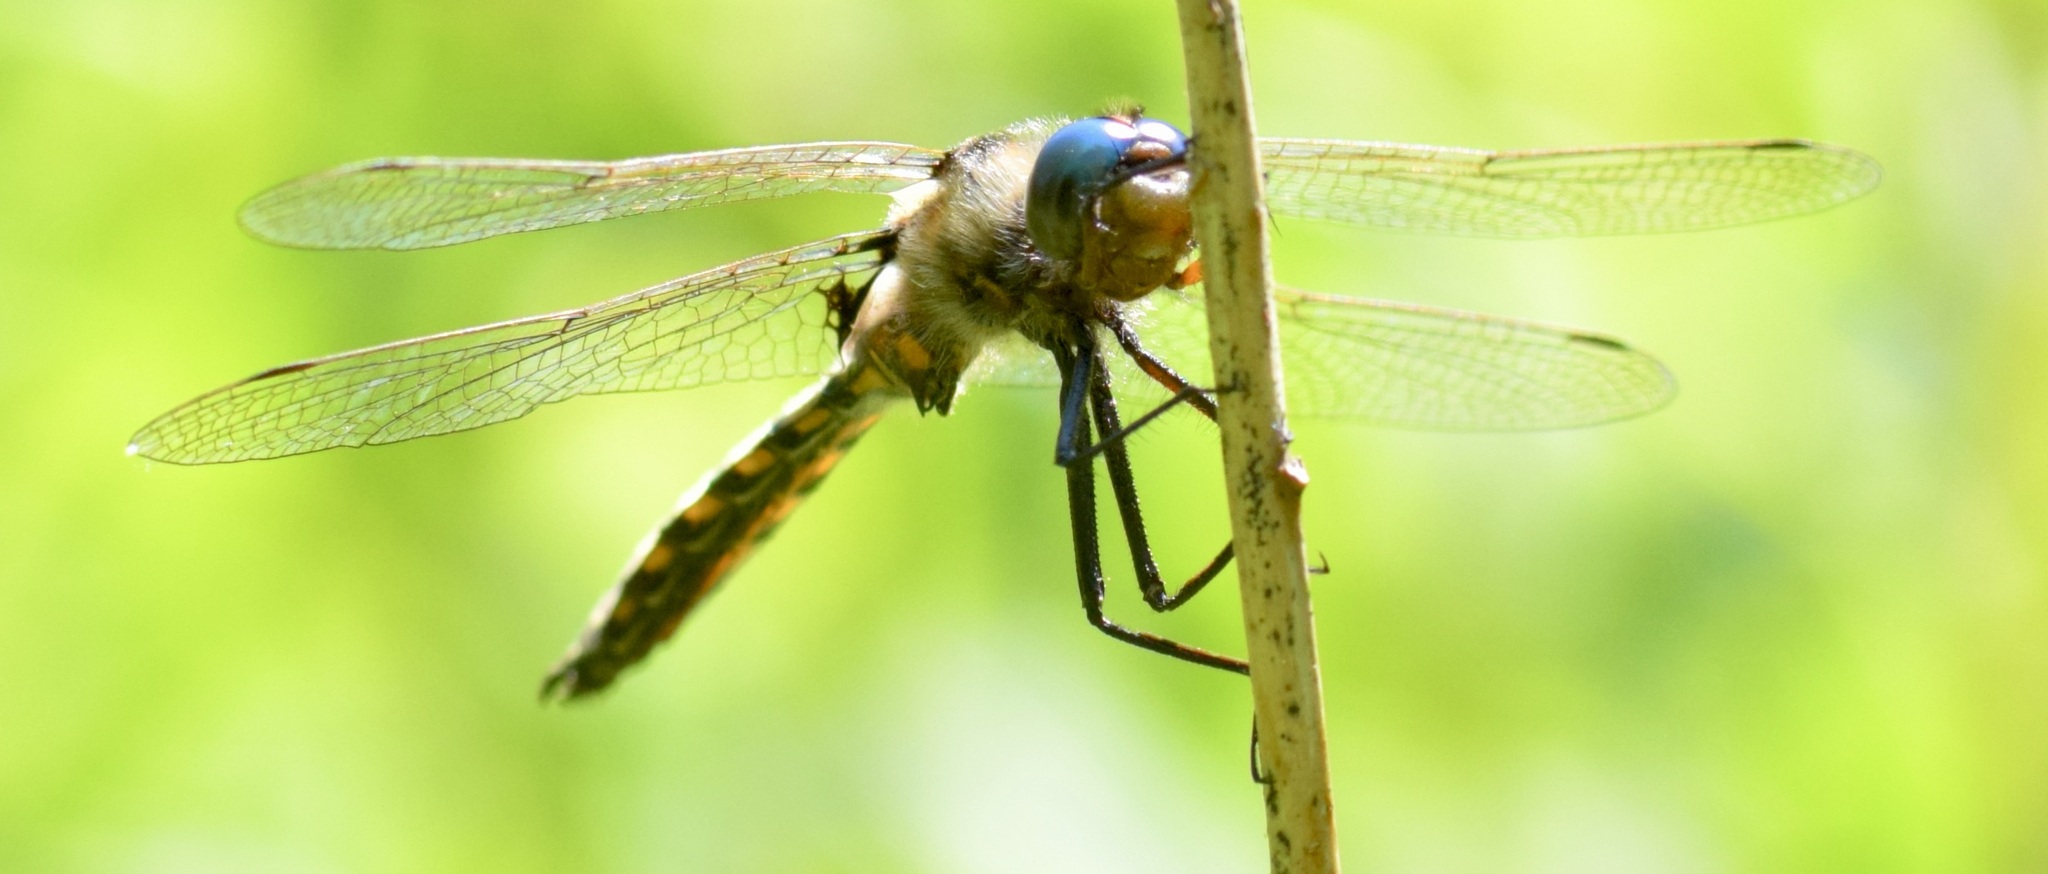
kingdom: Animalia
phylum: Arthropoda
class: Insecta
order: Odonata
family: Corduliidae
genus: Epitheca
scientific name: Epitheca canis
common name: Beaverpond baskettail
